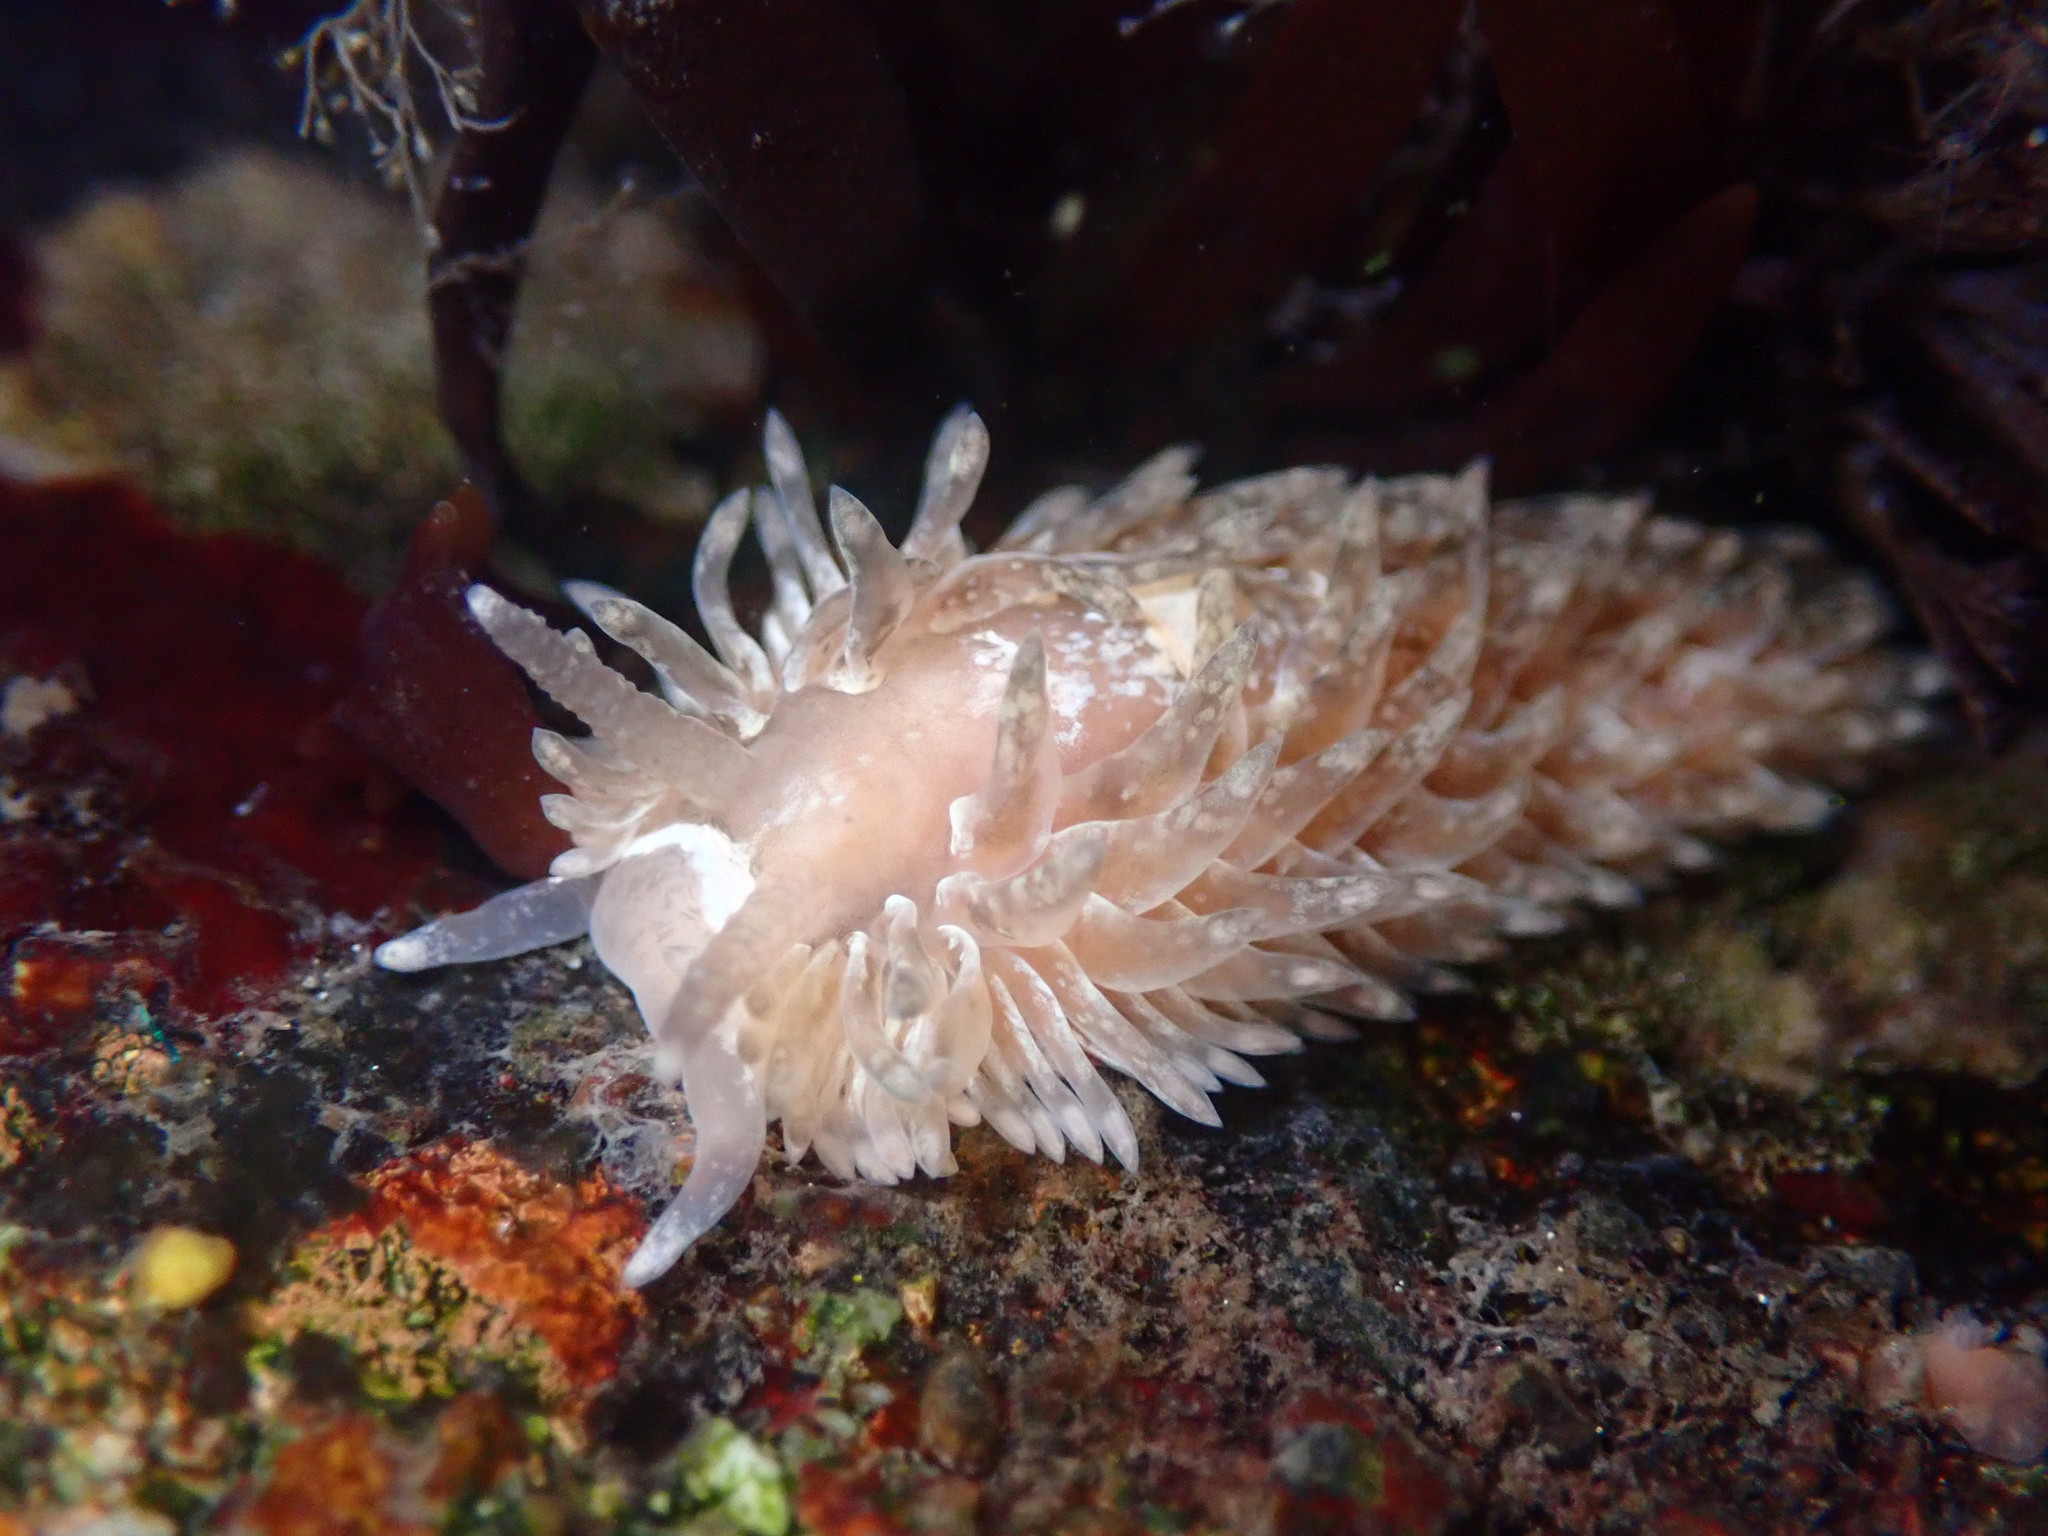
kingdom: Animalia
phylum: Mollusca
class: Gastropoda
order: Nudibranchia
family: Aeolidiidae
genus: Aeolidia
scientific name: Aeolidia loui
